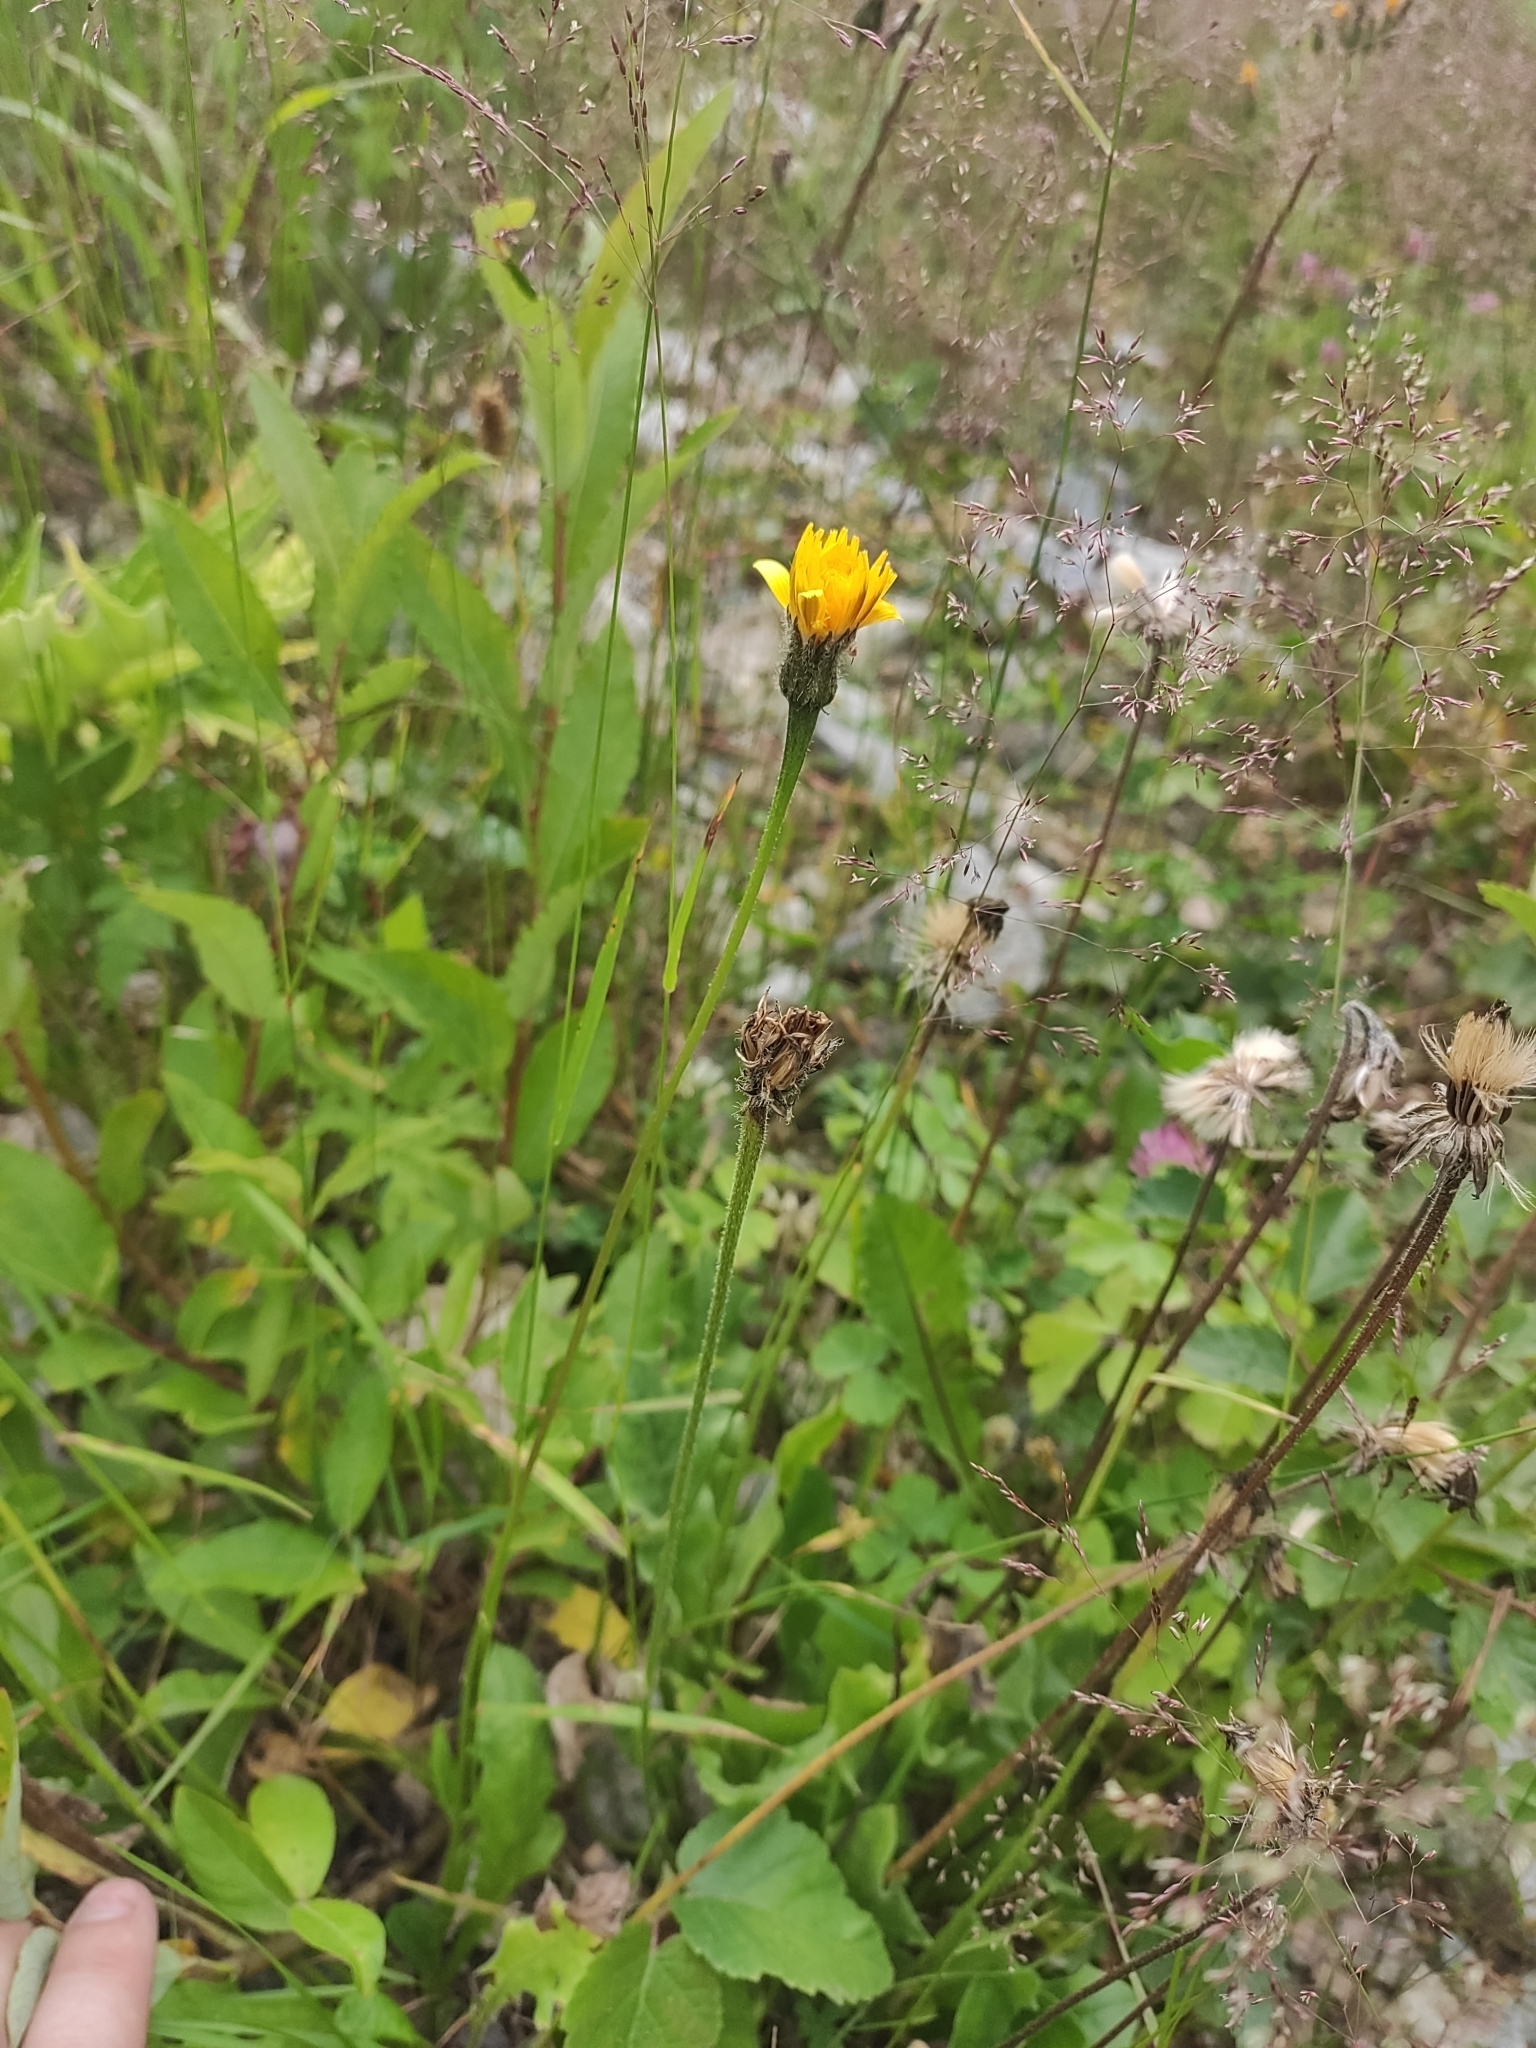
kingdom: Plantae
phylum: Tracheophyta
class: Magnoliopsida
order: Asterales
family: Asteraceae
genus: Leontodon
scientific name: Leontodon hispidus
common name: Rough hawkbit
